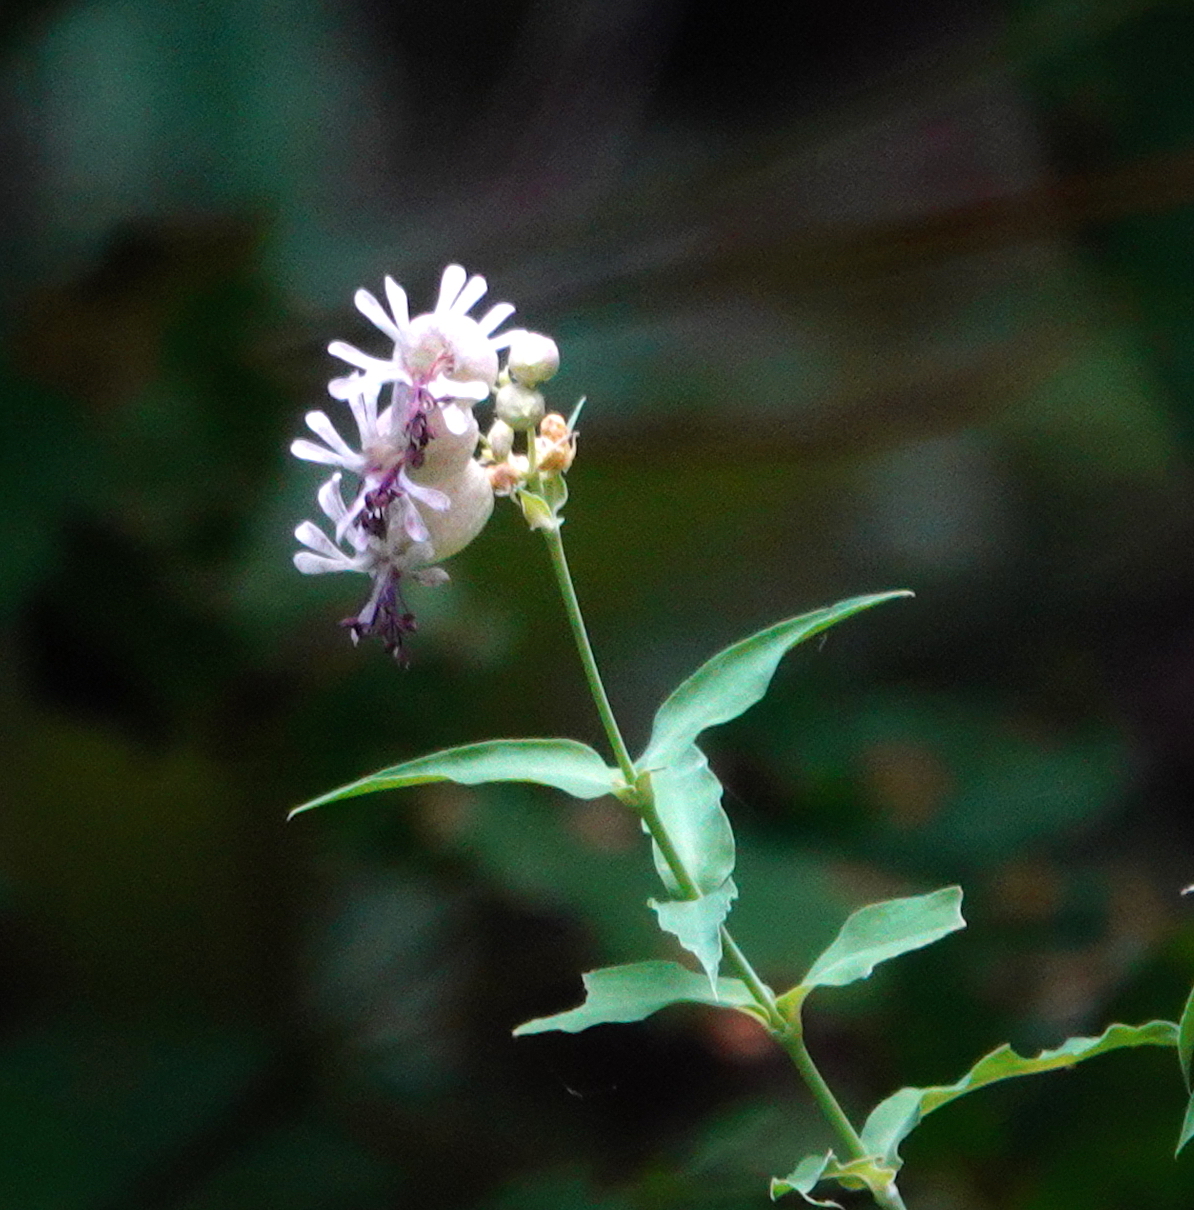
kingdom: Plantae
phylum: Tracheophyta
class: Magnoliopsida
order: Caryophyllales
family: Caryophyllaceae
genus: Silene
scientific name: Silene vulgaris
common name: Bladder campion
